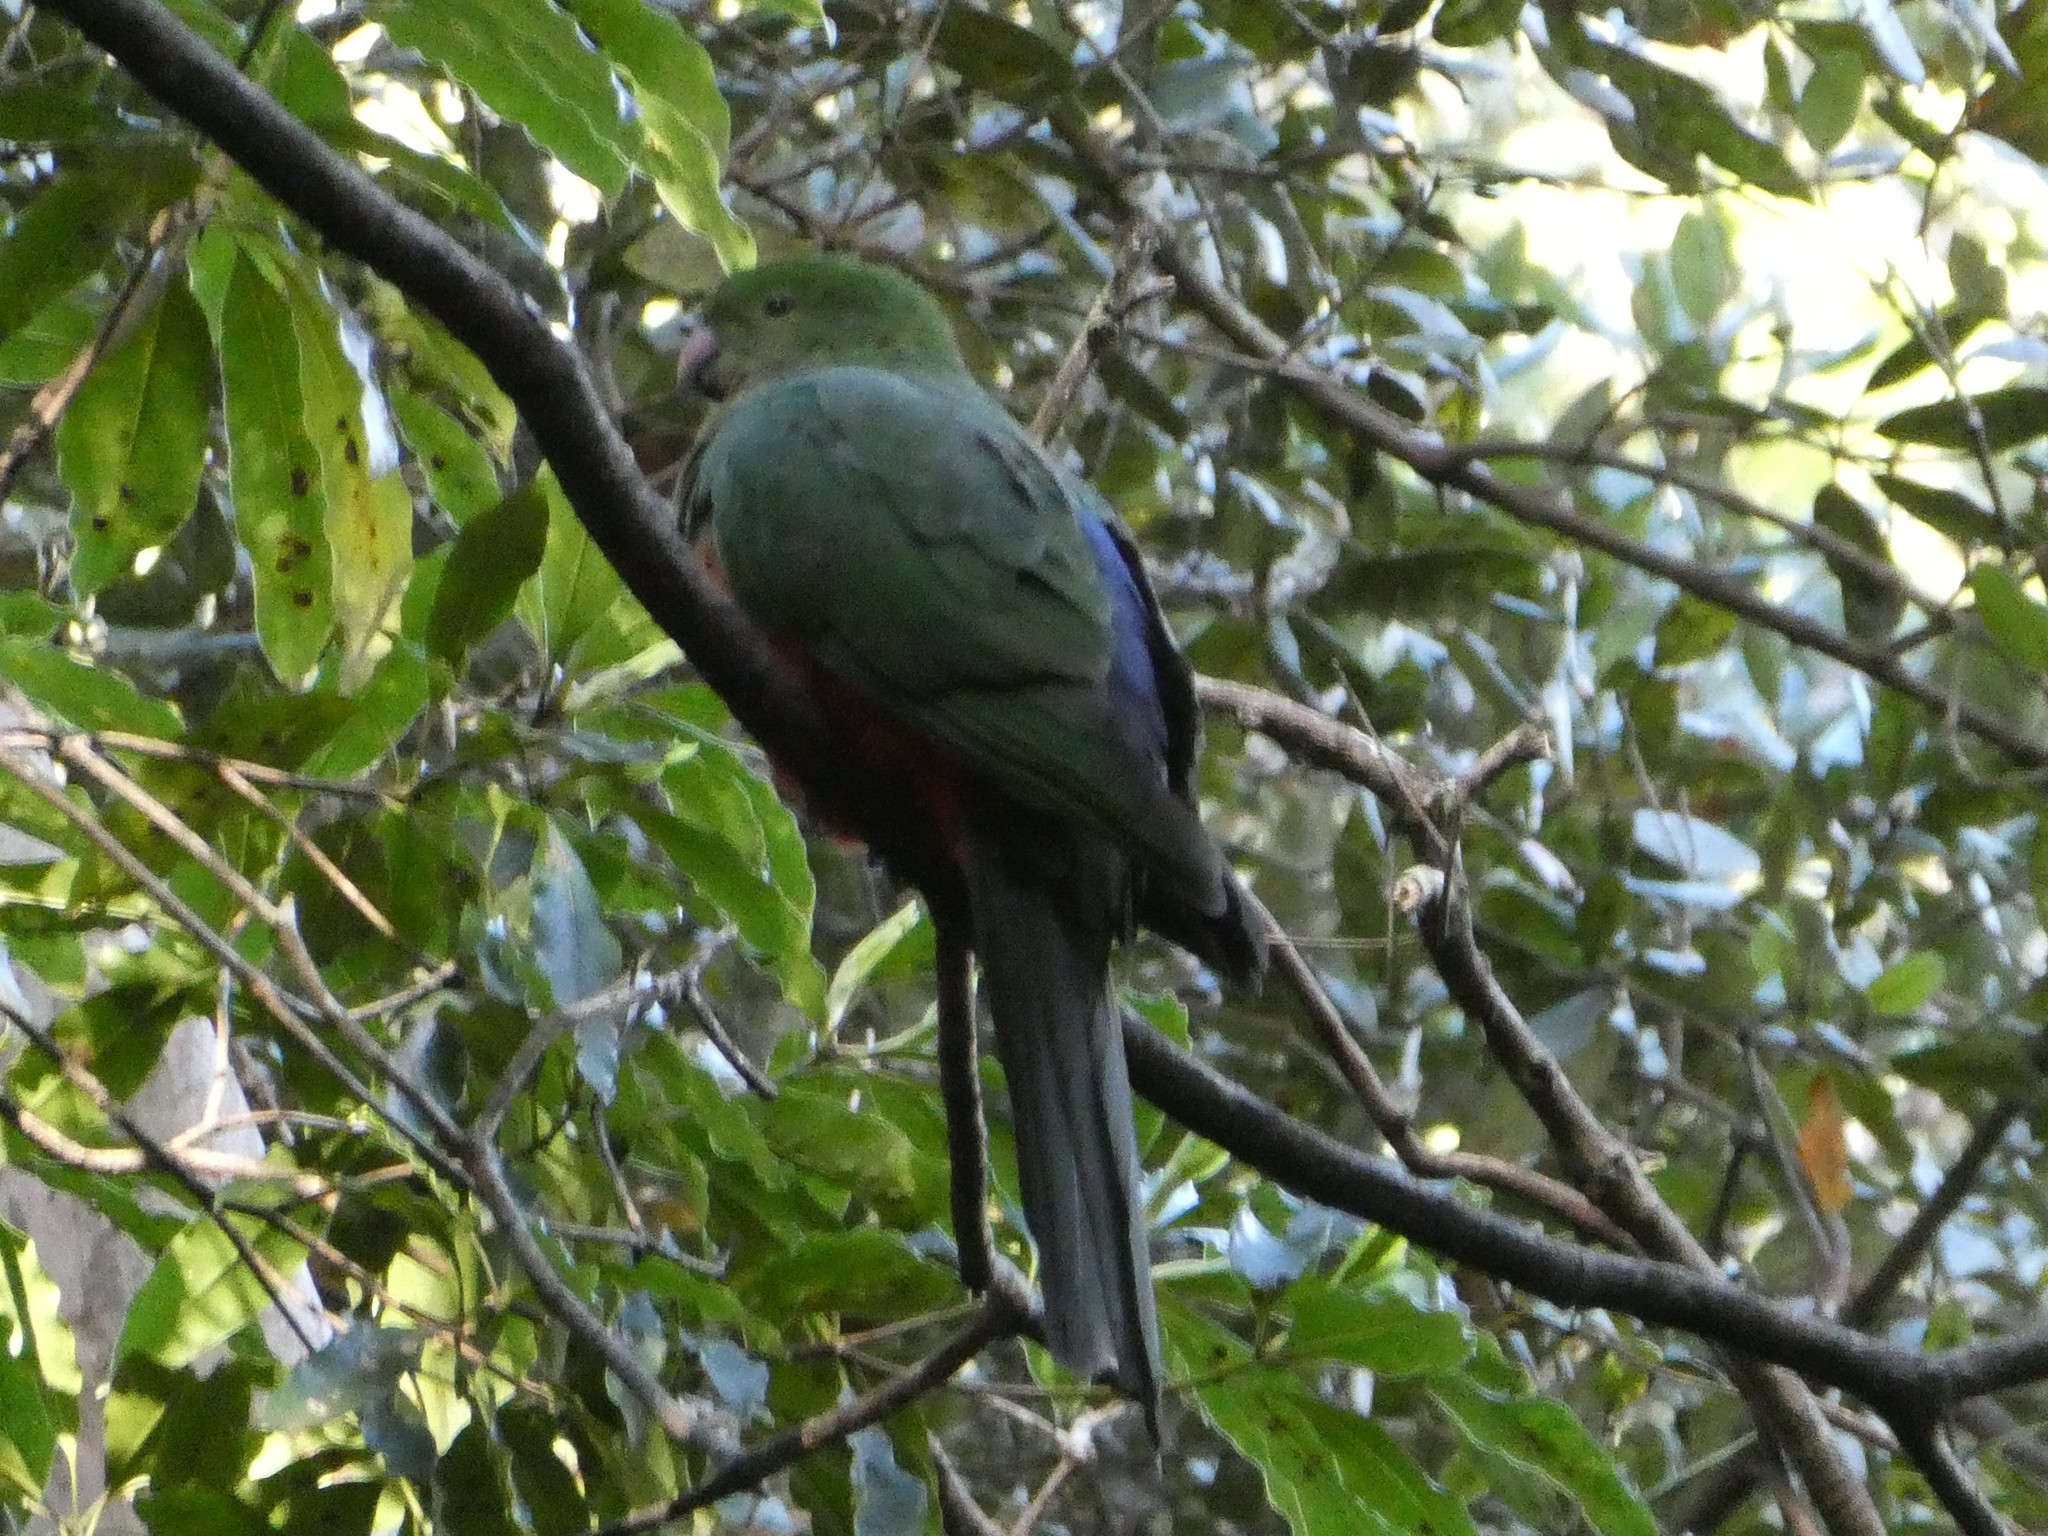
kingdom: Animalia
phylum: Chordata
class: Aves
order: Psittaciformes
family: Psittacidae
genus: Alisterus
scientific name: Alisterus scapularis
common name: Australian king parrot
